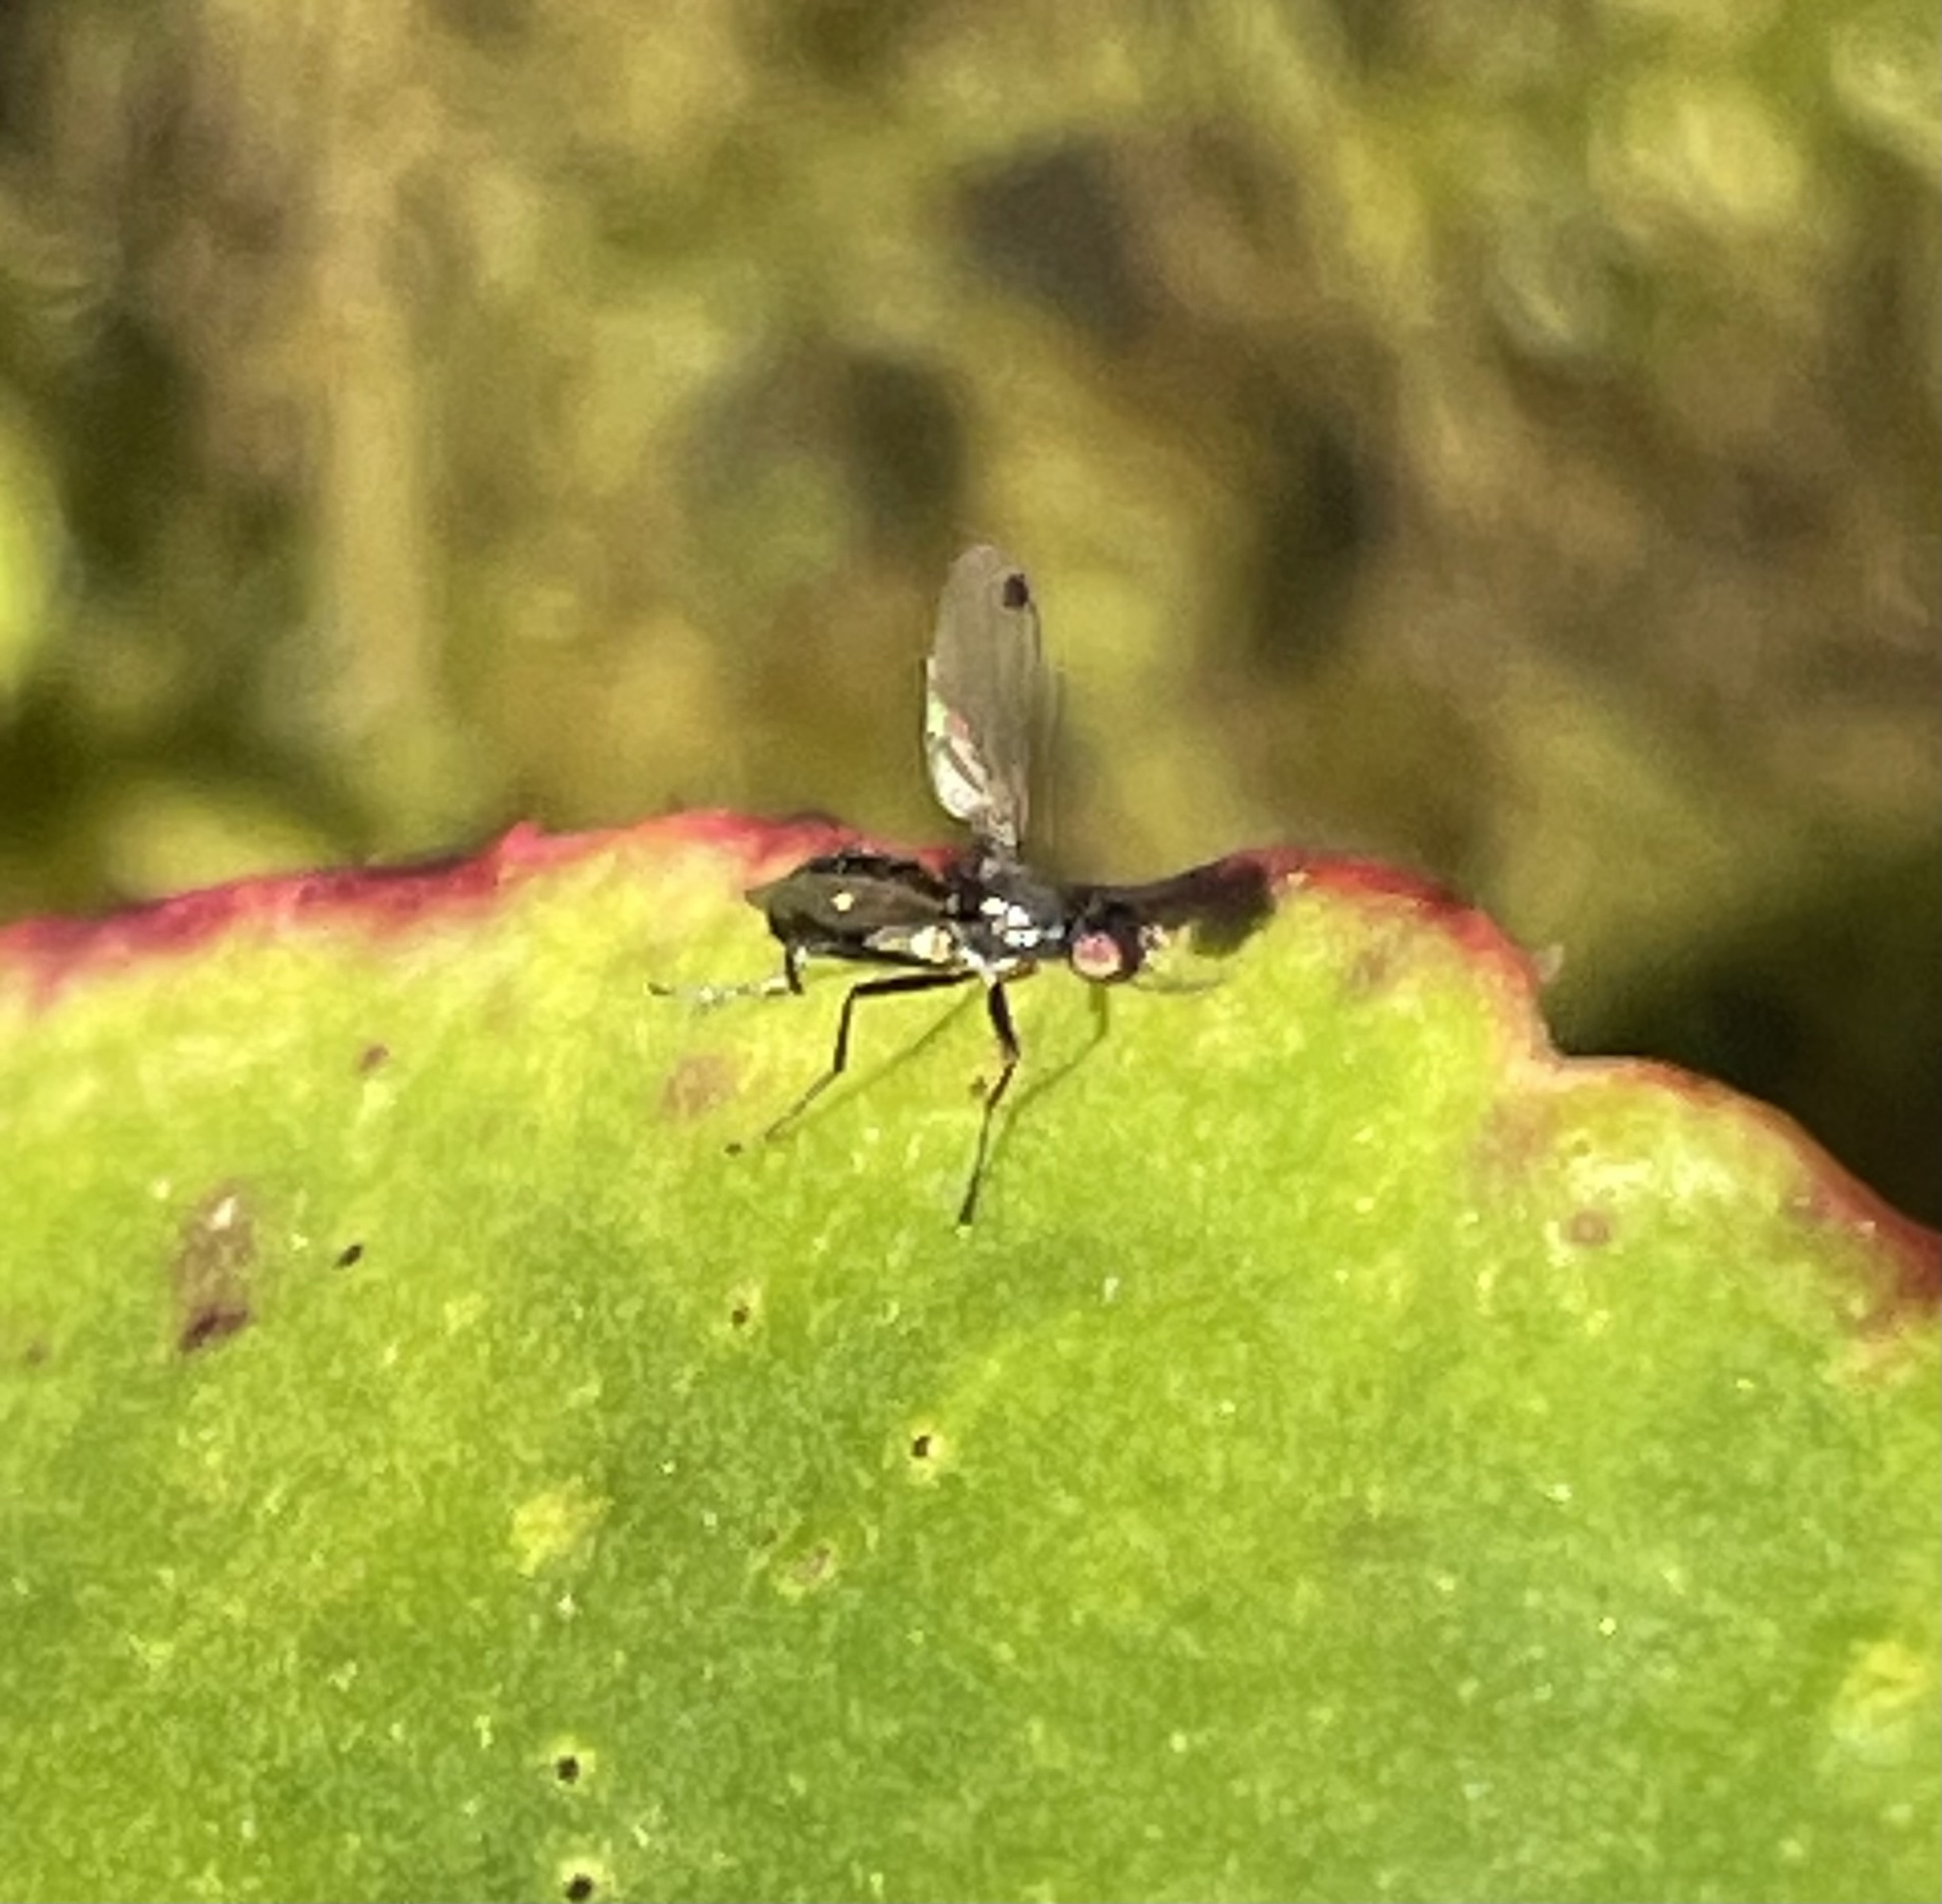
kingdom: Animalia
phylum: Arthropoda
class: Insecta
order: Diptera
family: Sepsidae
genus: Sepsis
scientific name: Sepsis
